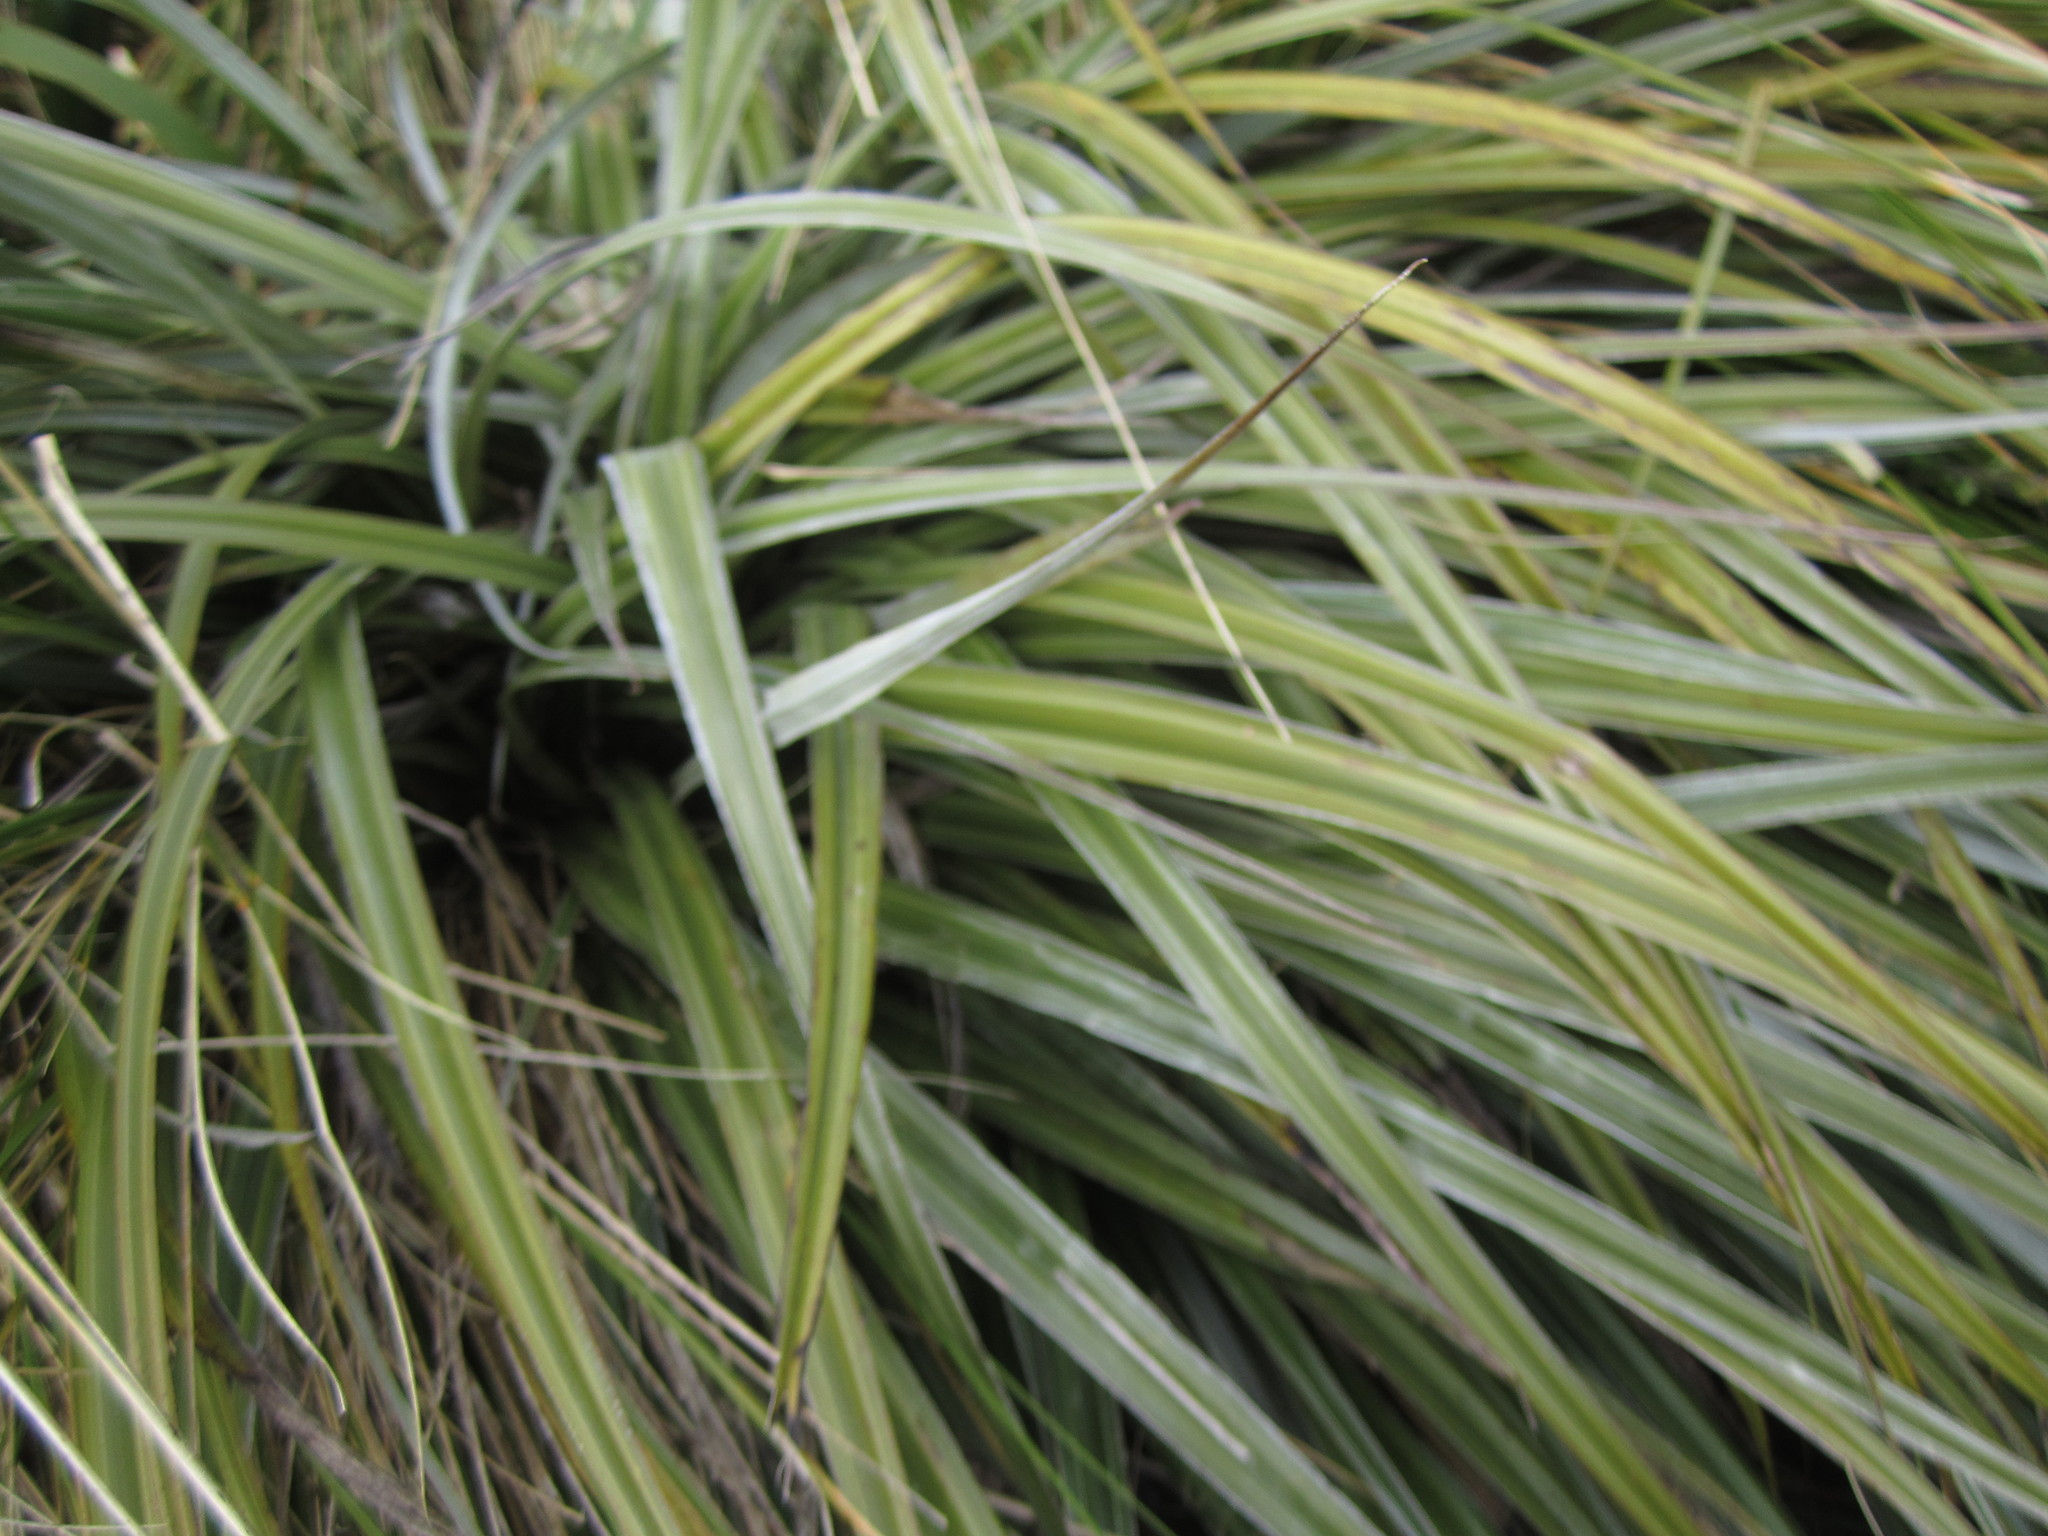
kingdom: Animalia
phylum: Arthropoda
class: Insecta
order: Lepidoptera
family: Plutellidae
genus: Charixena
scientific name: Charixena iridoxa
